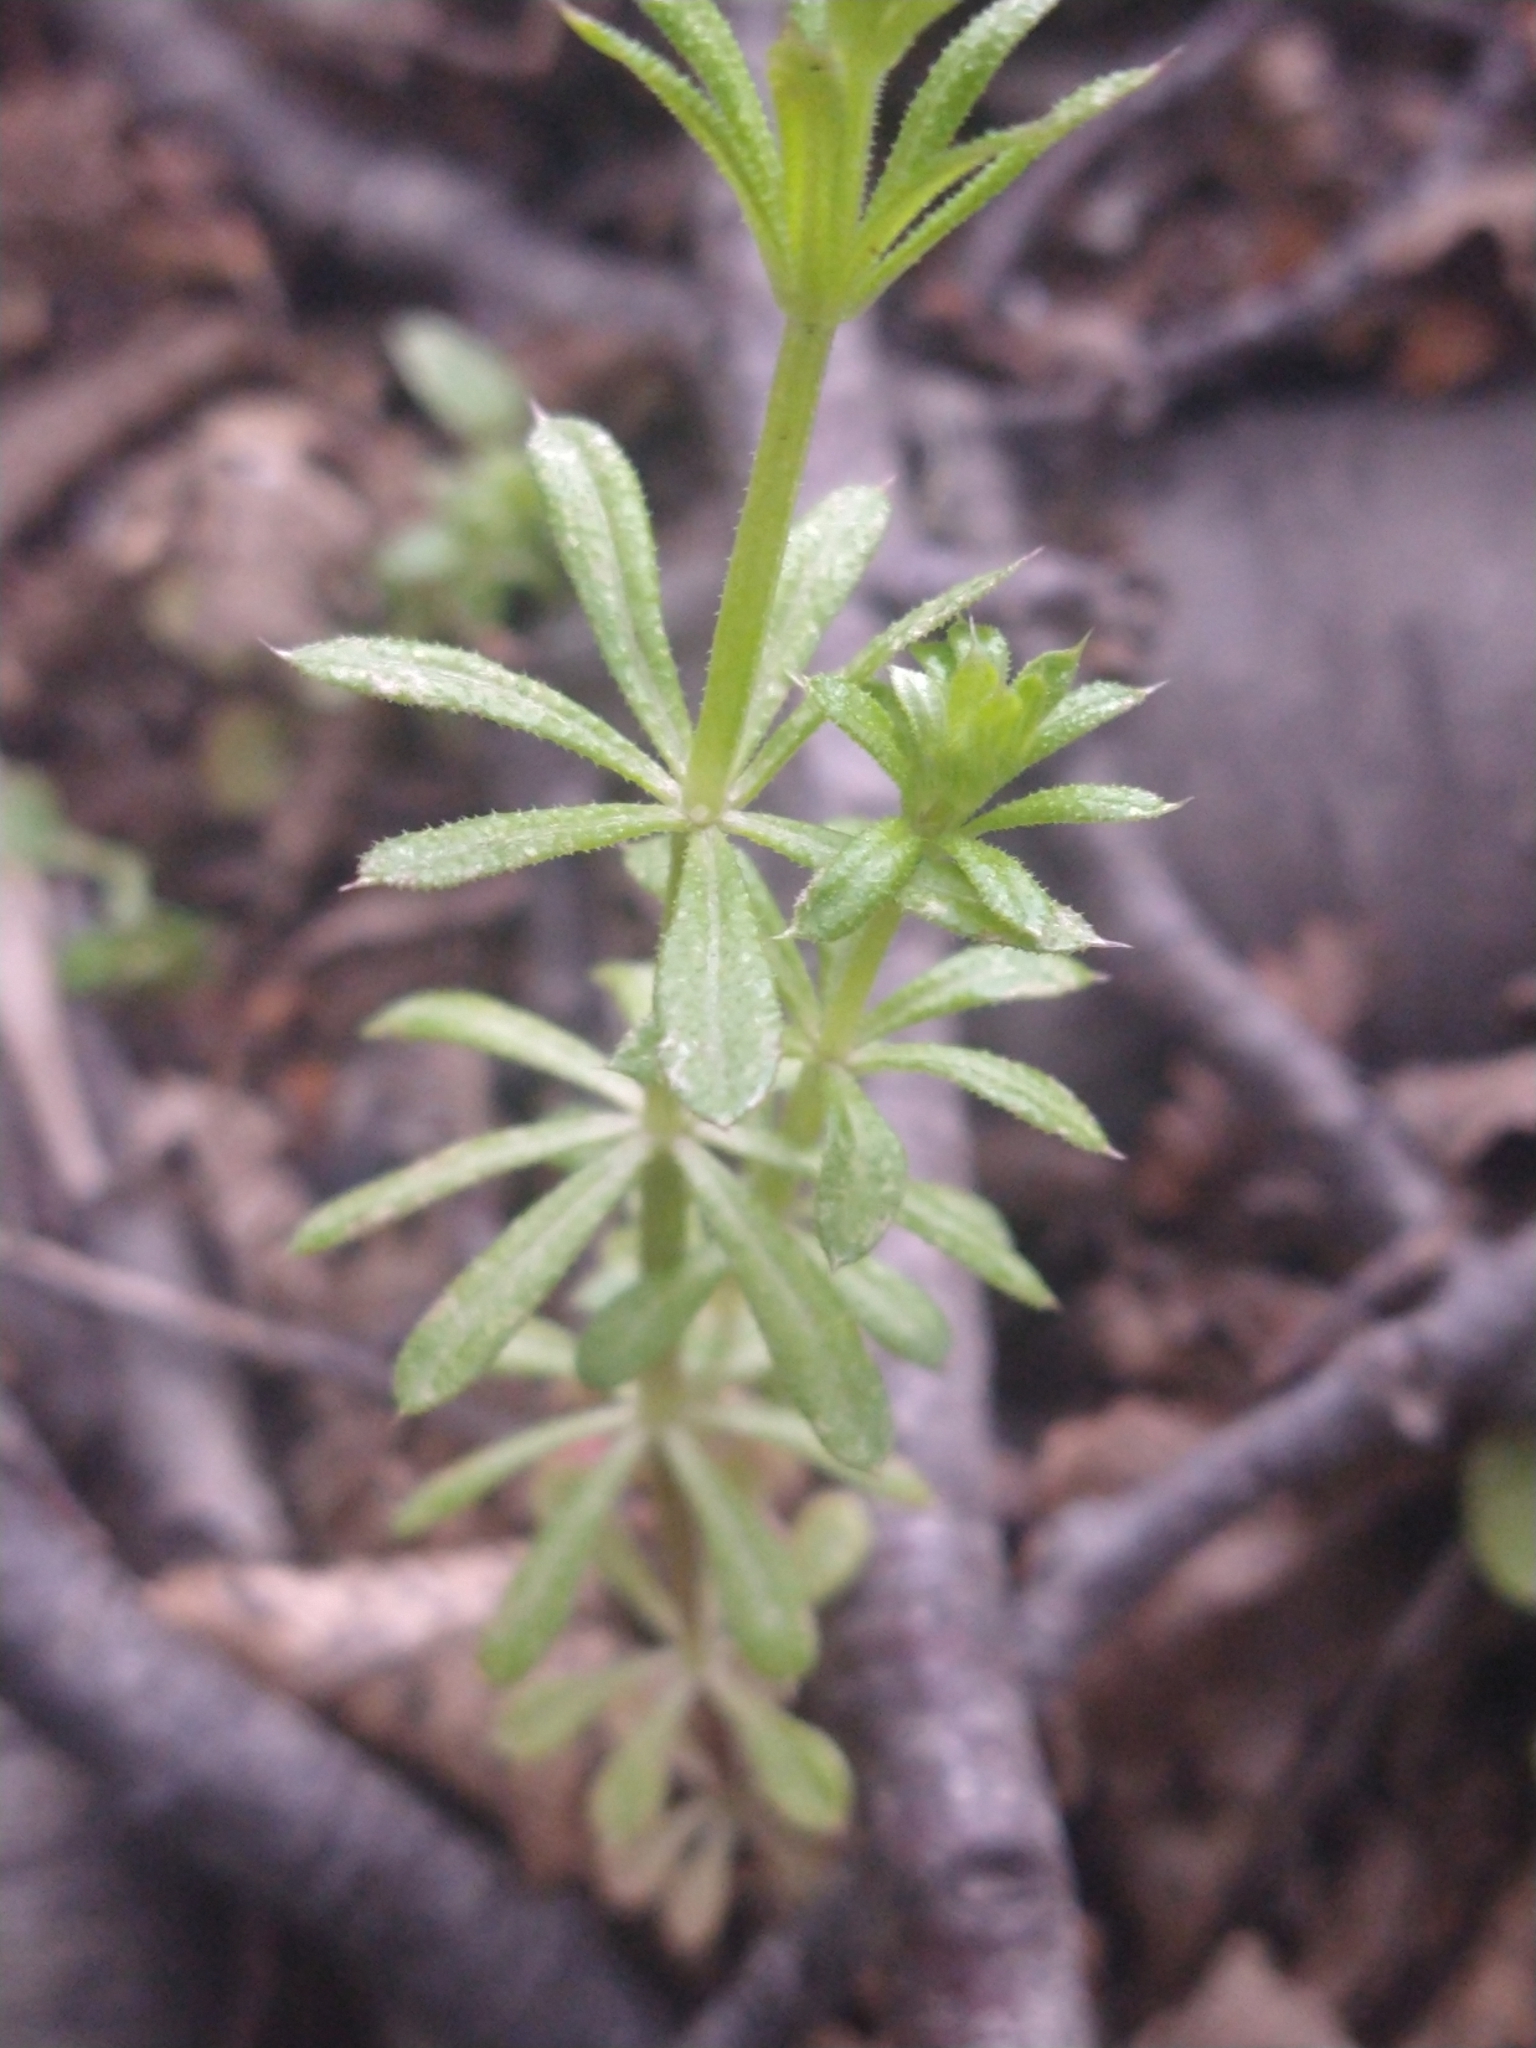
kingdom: Plantae
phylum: Tracheophyta
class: Magnoliopsida
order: Gentianales
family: Rubiaceae
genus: Galium
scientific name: Galium aparine
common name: Cleavers
